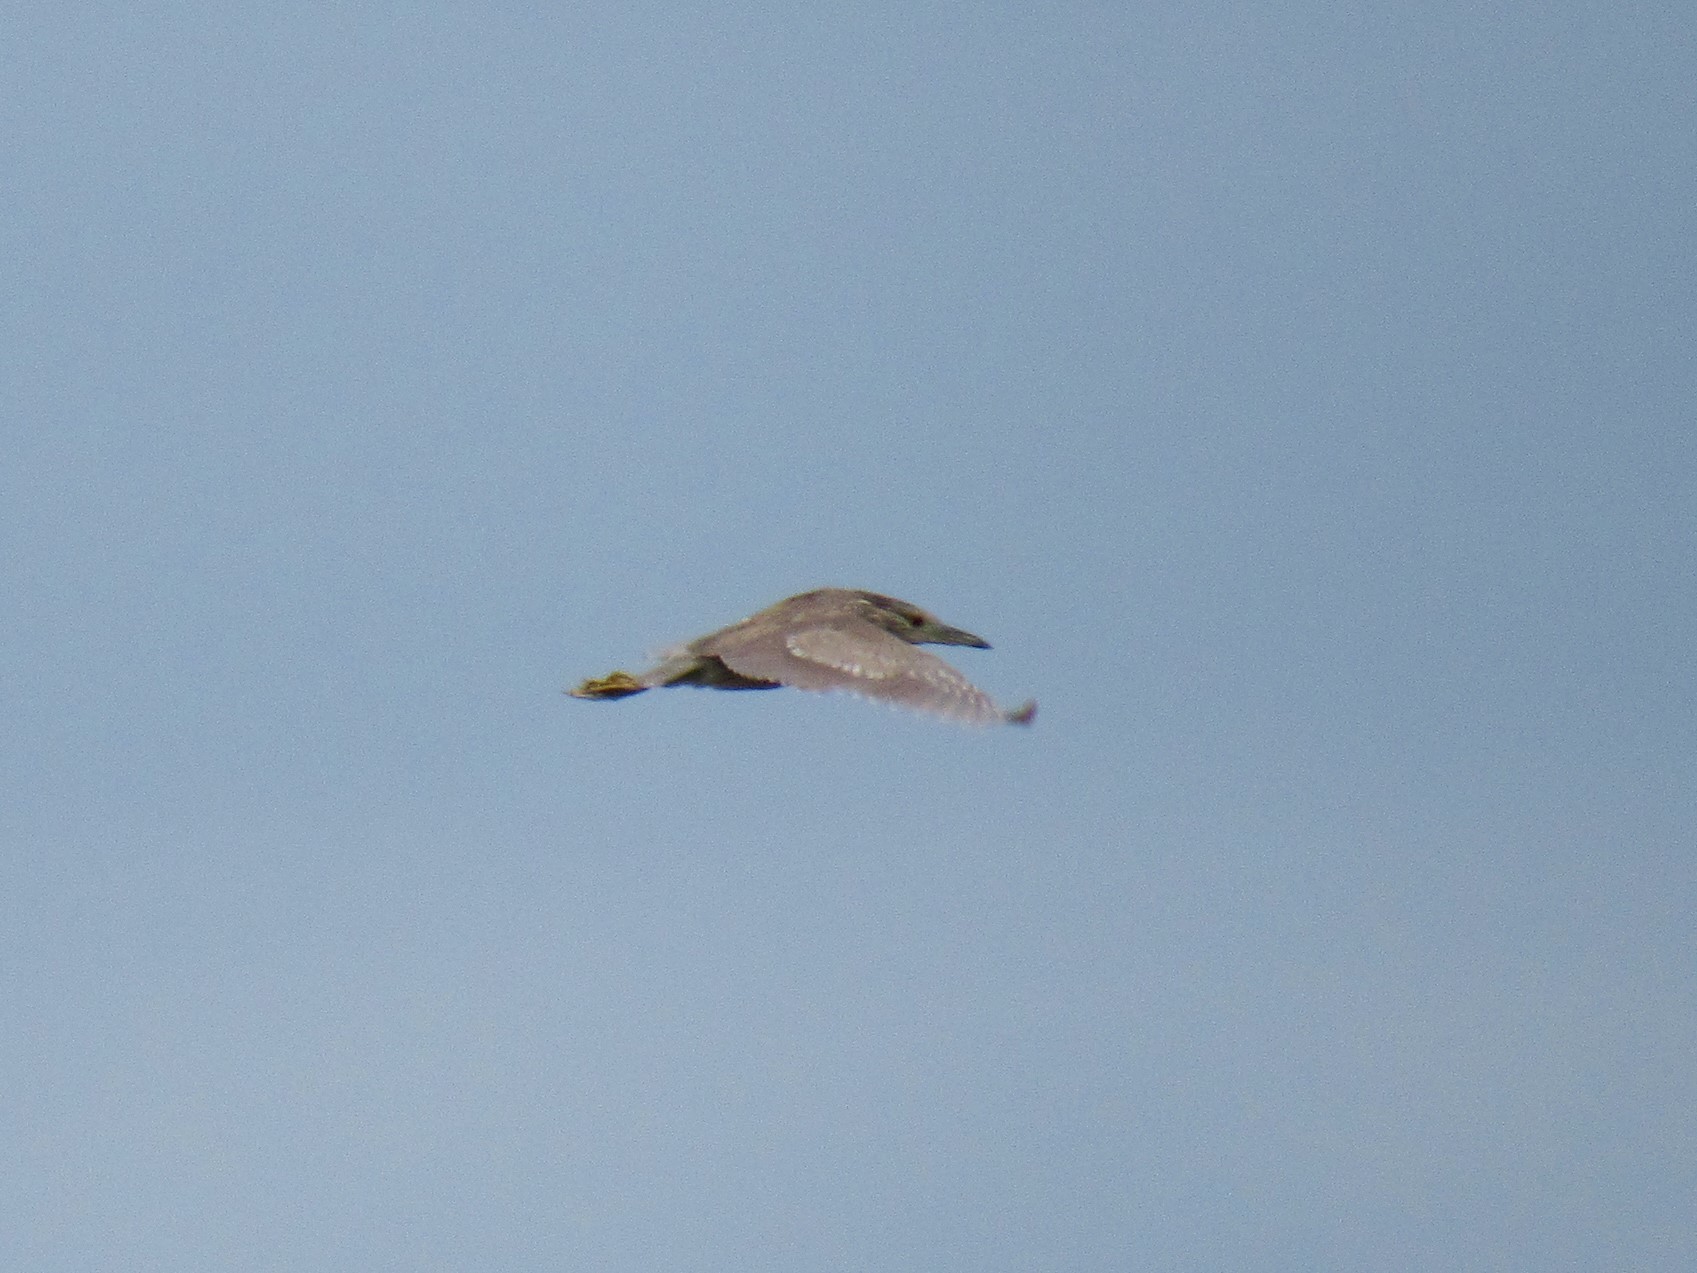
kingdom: Animalia
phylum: Chordata
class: Aves
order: Pelecaniformes
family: Ardeidae
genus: Nycticorax
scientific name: Nycticorax nycticorax
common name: Black-crowned night heron
